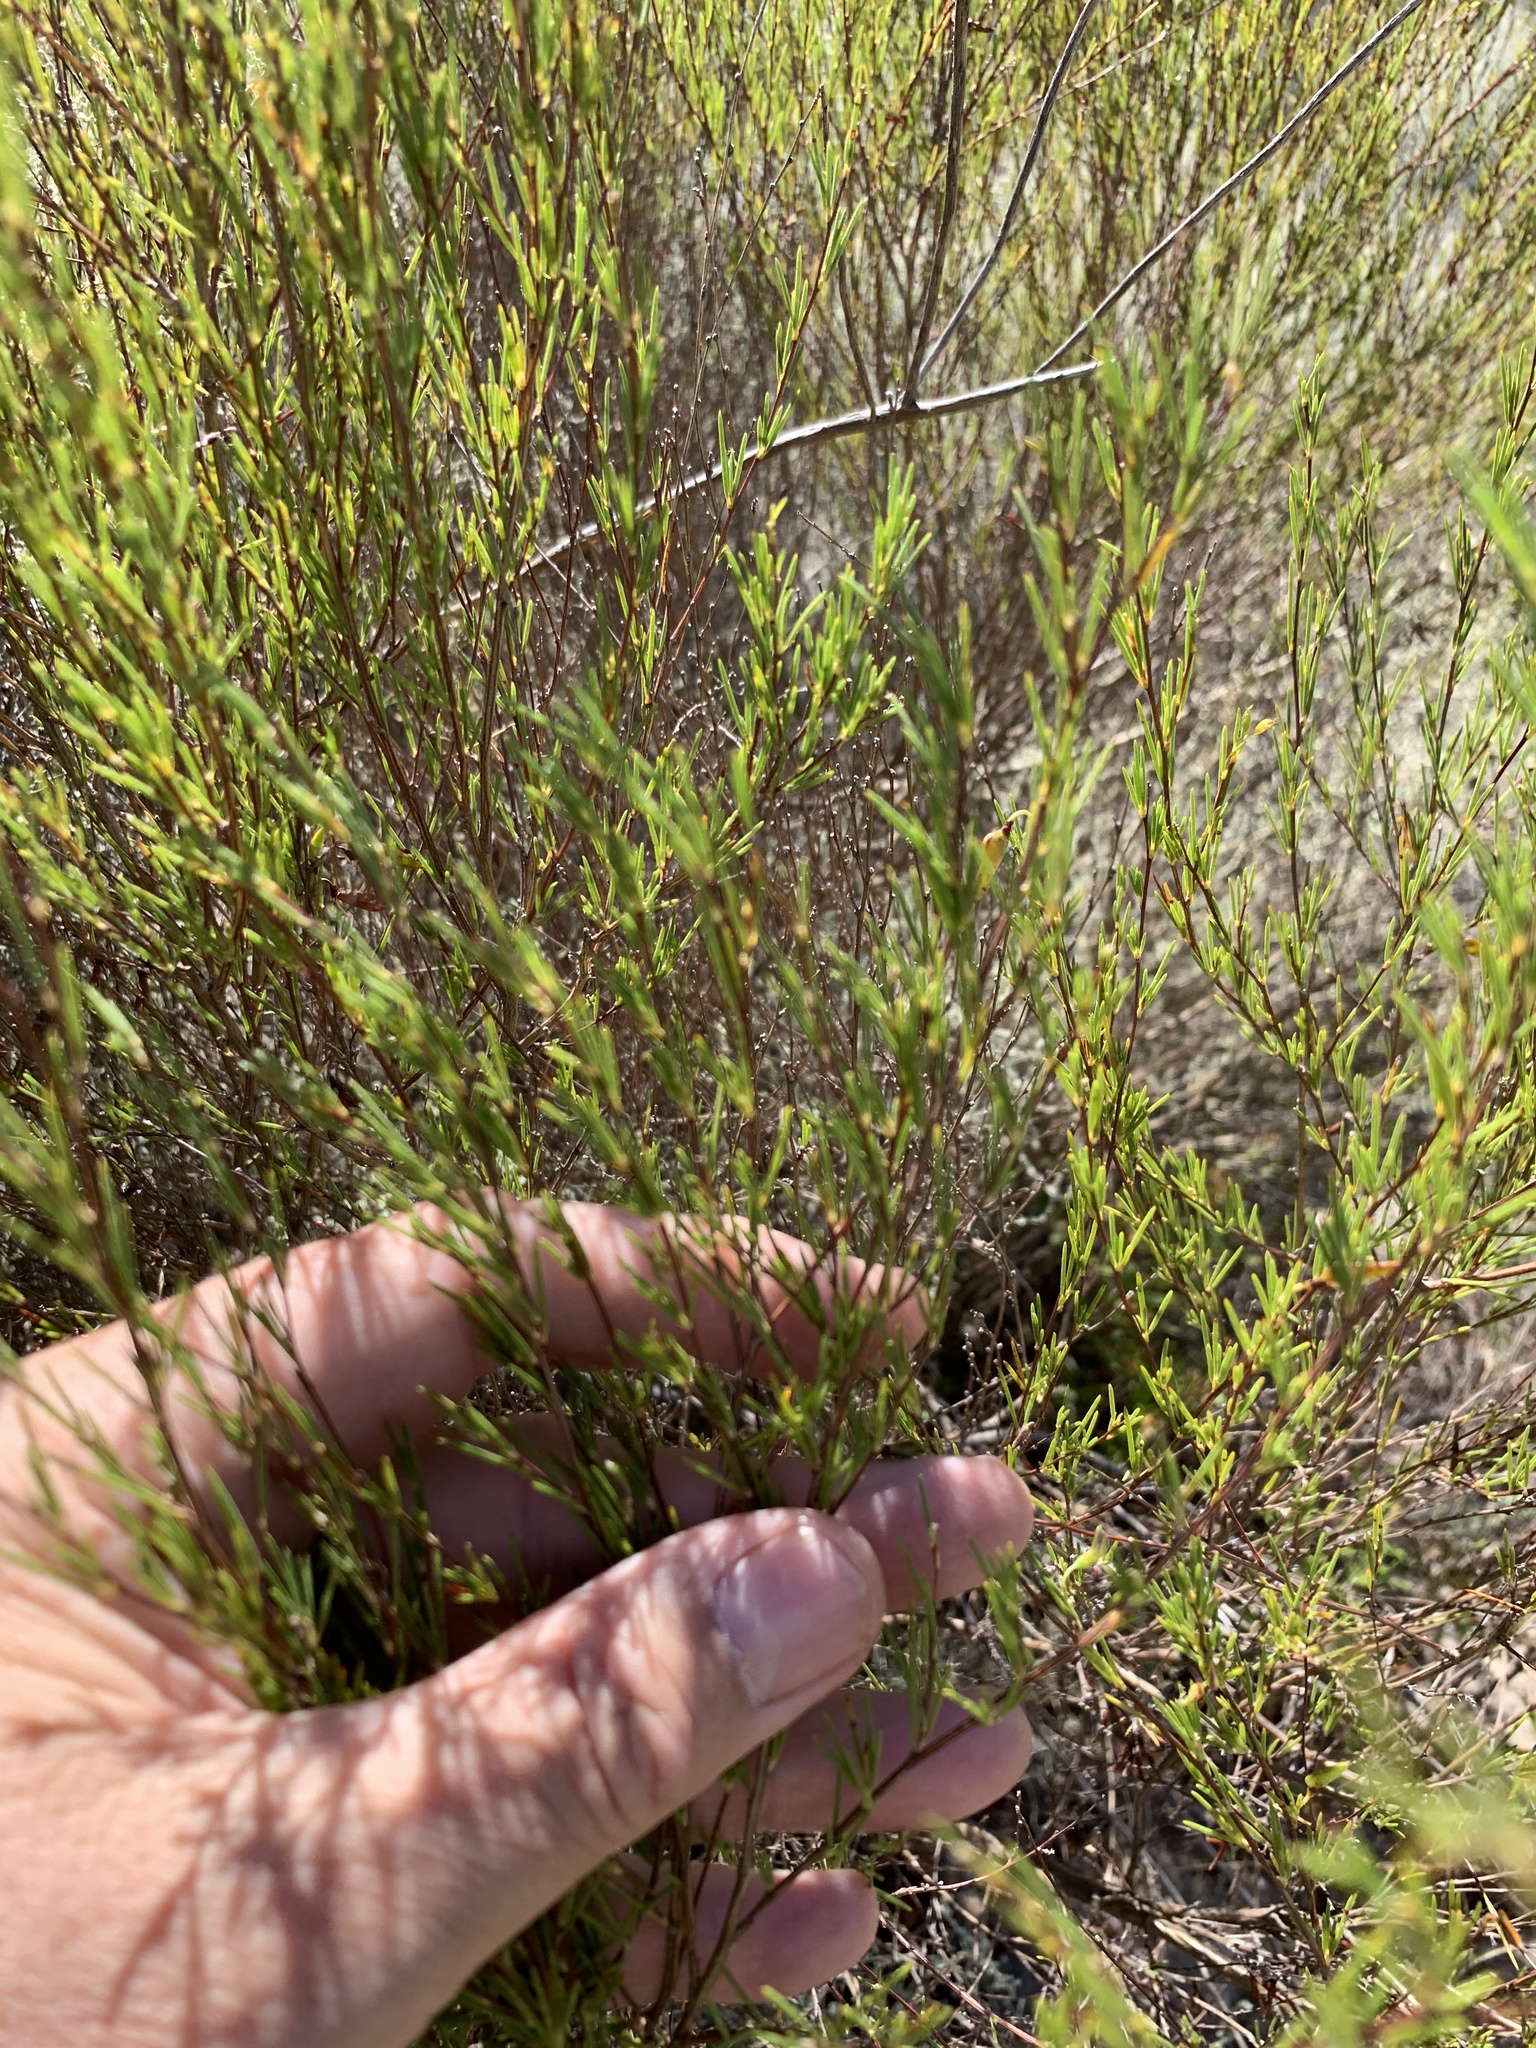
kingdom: Plantae
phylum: Tracheophyta
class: Magnoliopsida
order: Fabales
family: Fabaceae
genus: Aspalathus
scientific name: Aspalathus linearis
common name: Rooibos-tea
